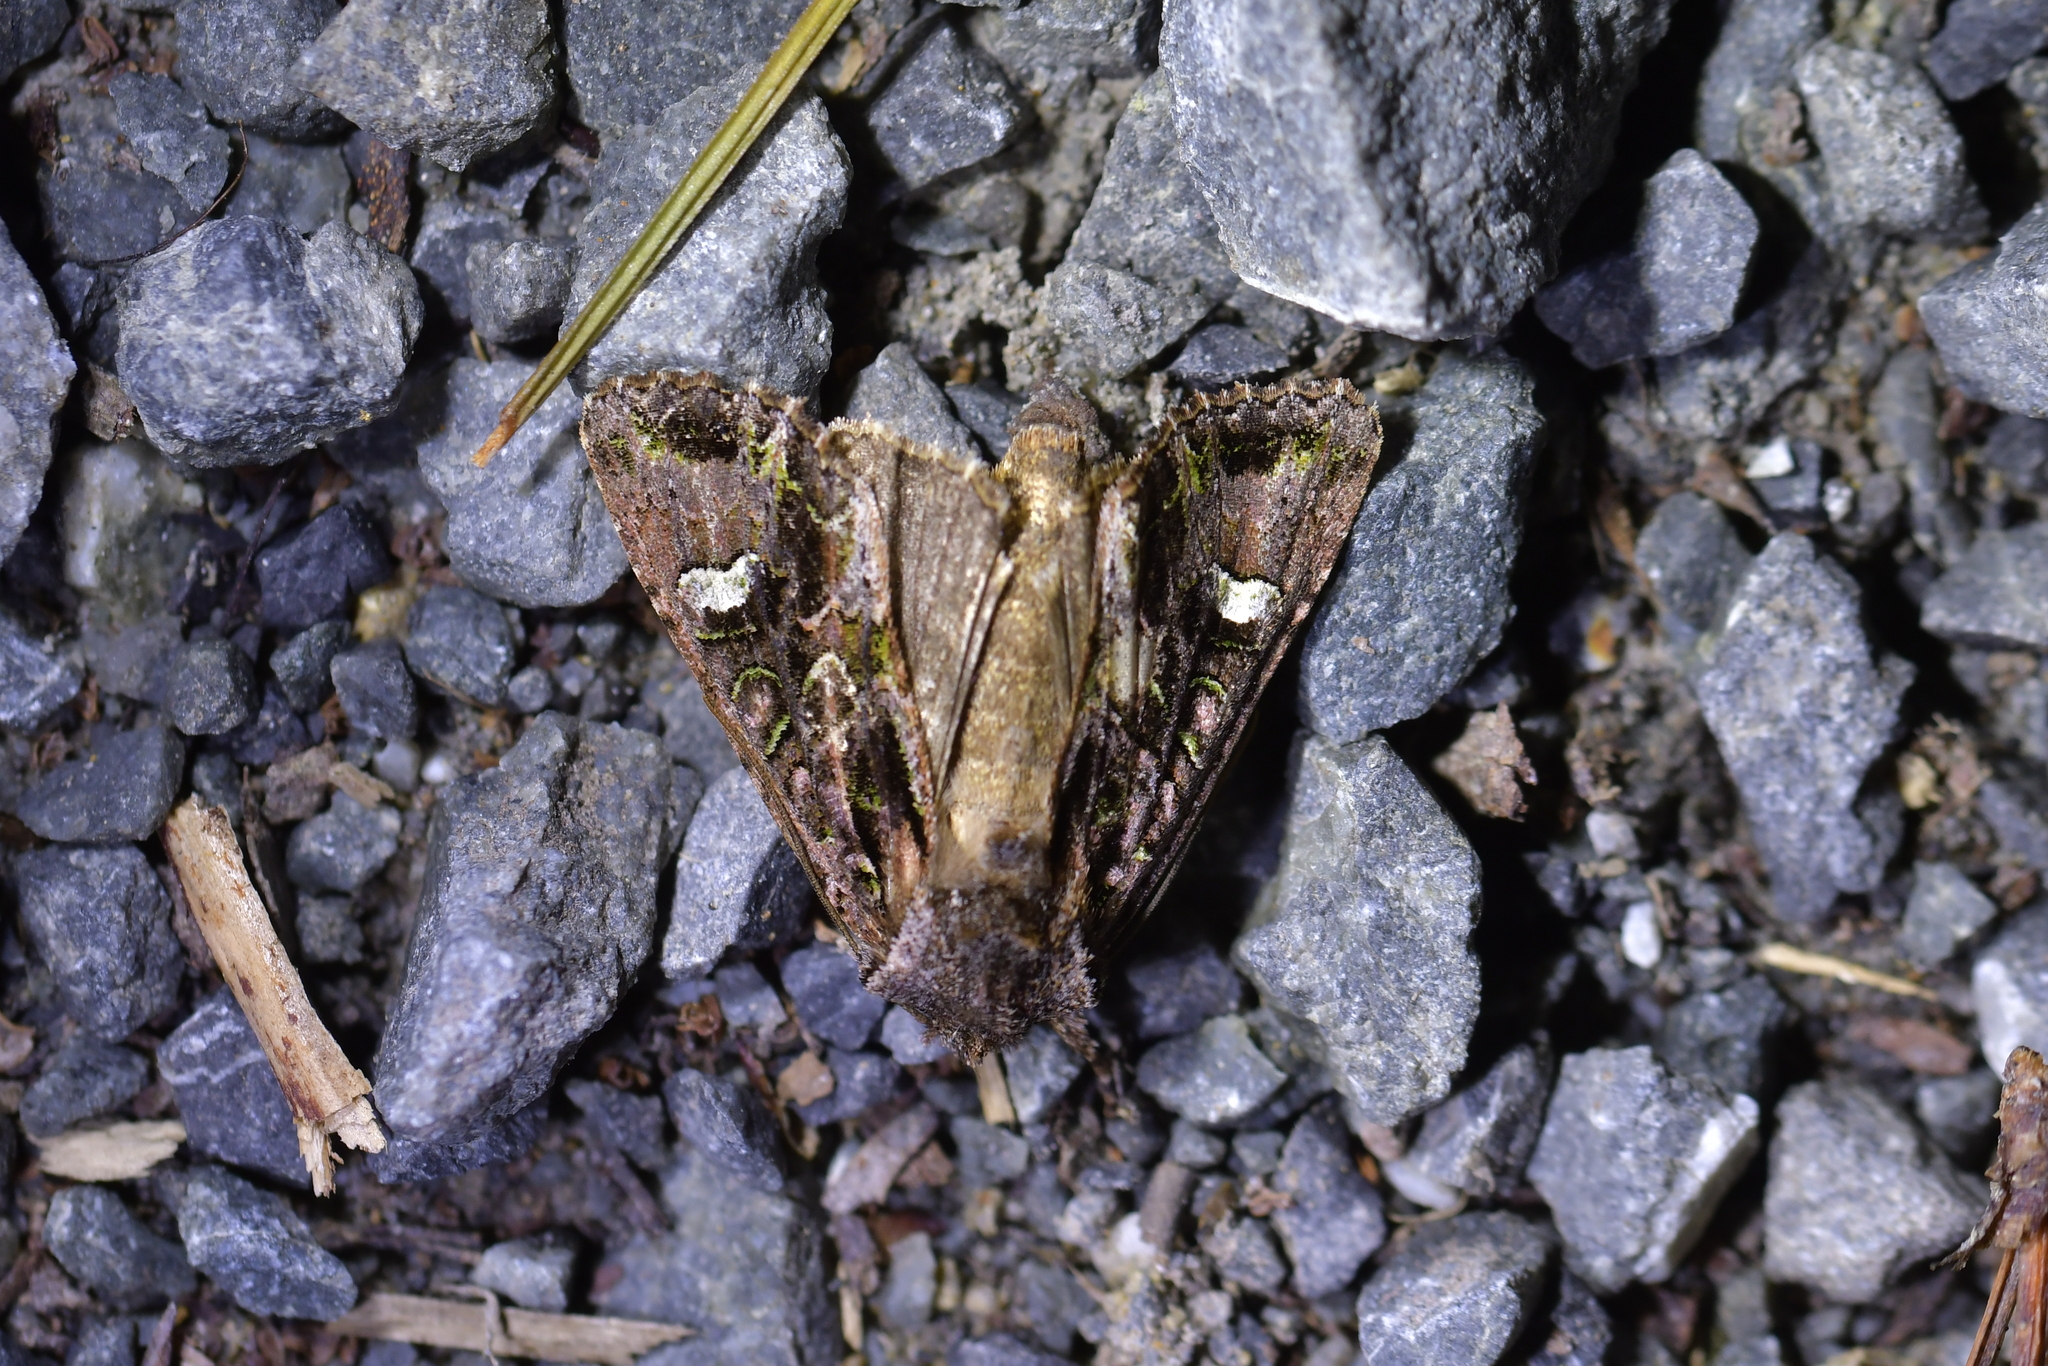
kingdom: Animalia
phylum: Arthropoda
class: Insecta
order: Lepidoptera
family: Noctuidae
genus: Ichneutica
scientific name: Ichneutica insignis
